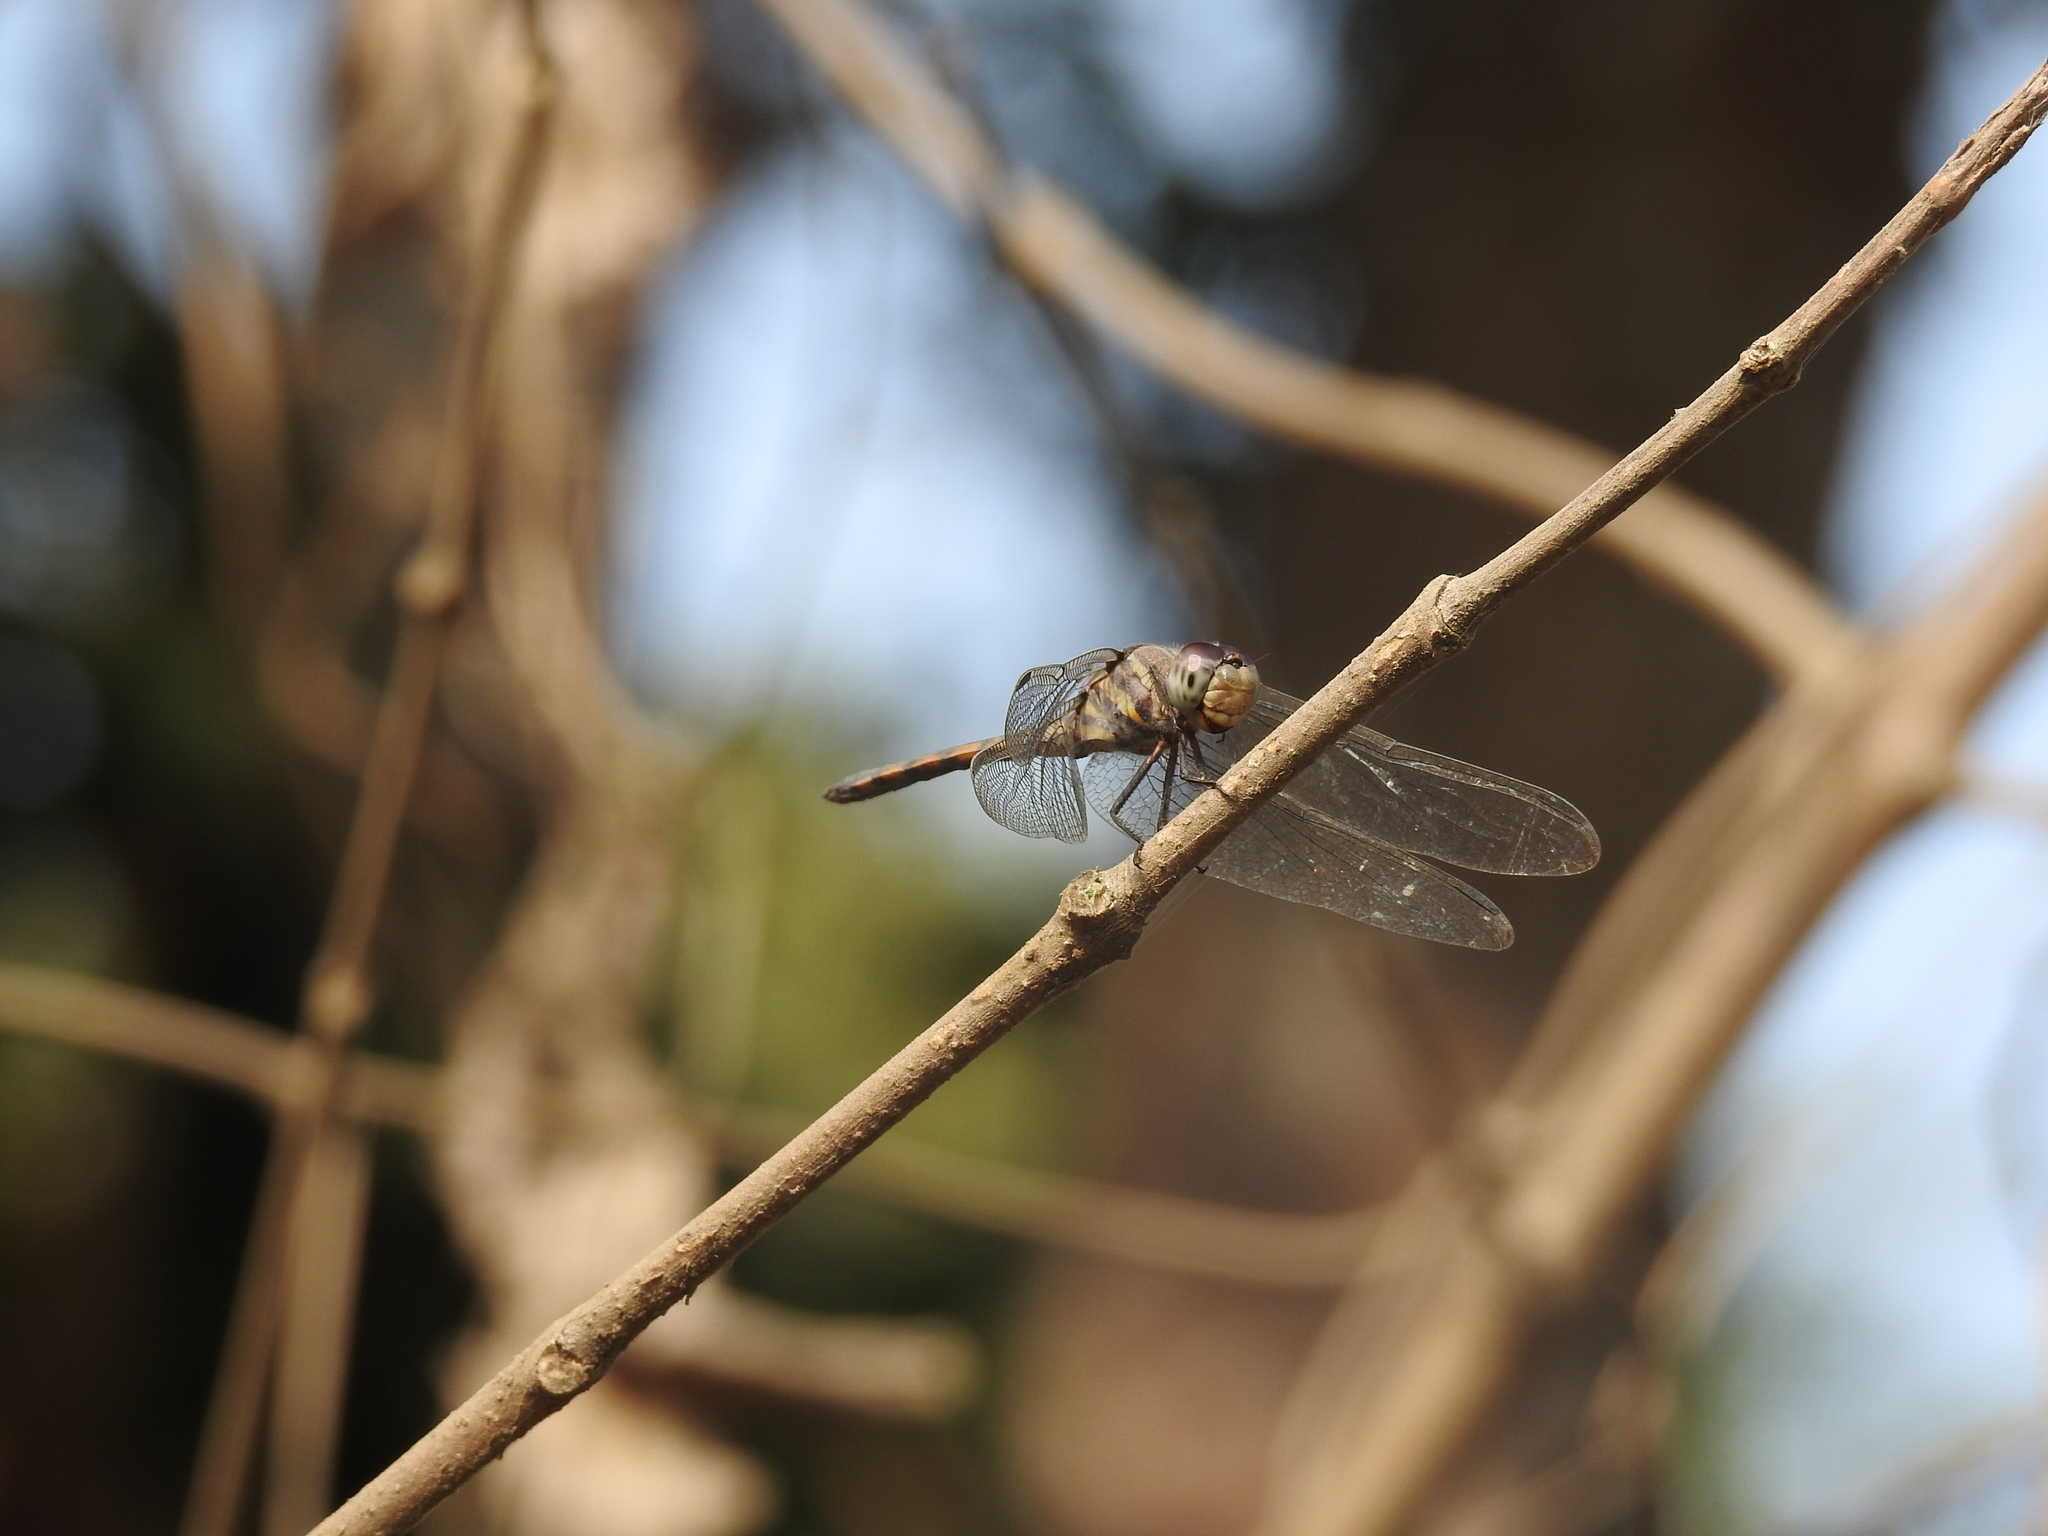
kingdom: Animalia
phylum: Arthropoda
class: Insecta
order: Odonata
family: Libellulidae
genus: Potamarcha
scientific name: Potamarcha congener
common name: Blue chaser
